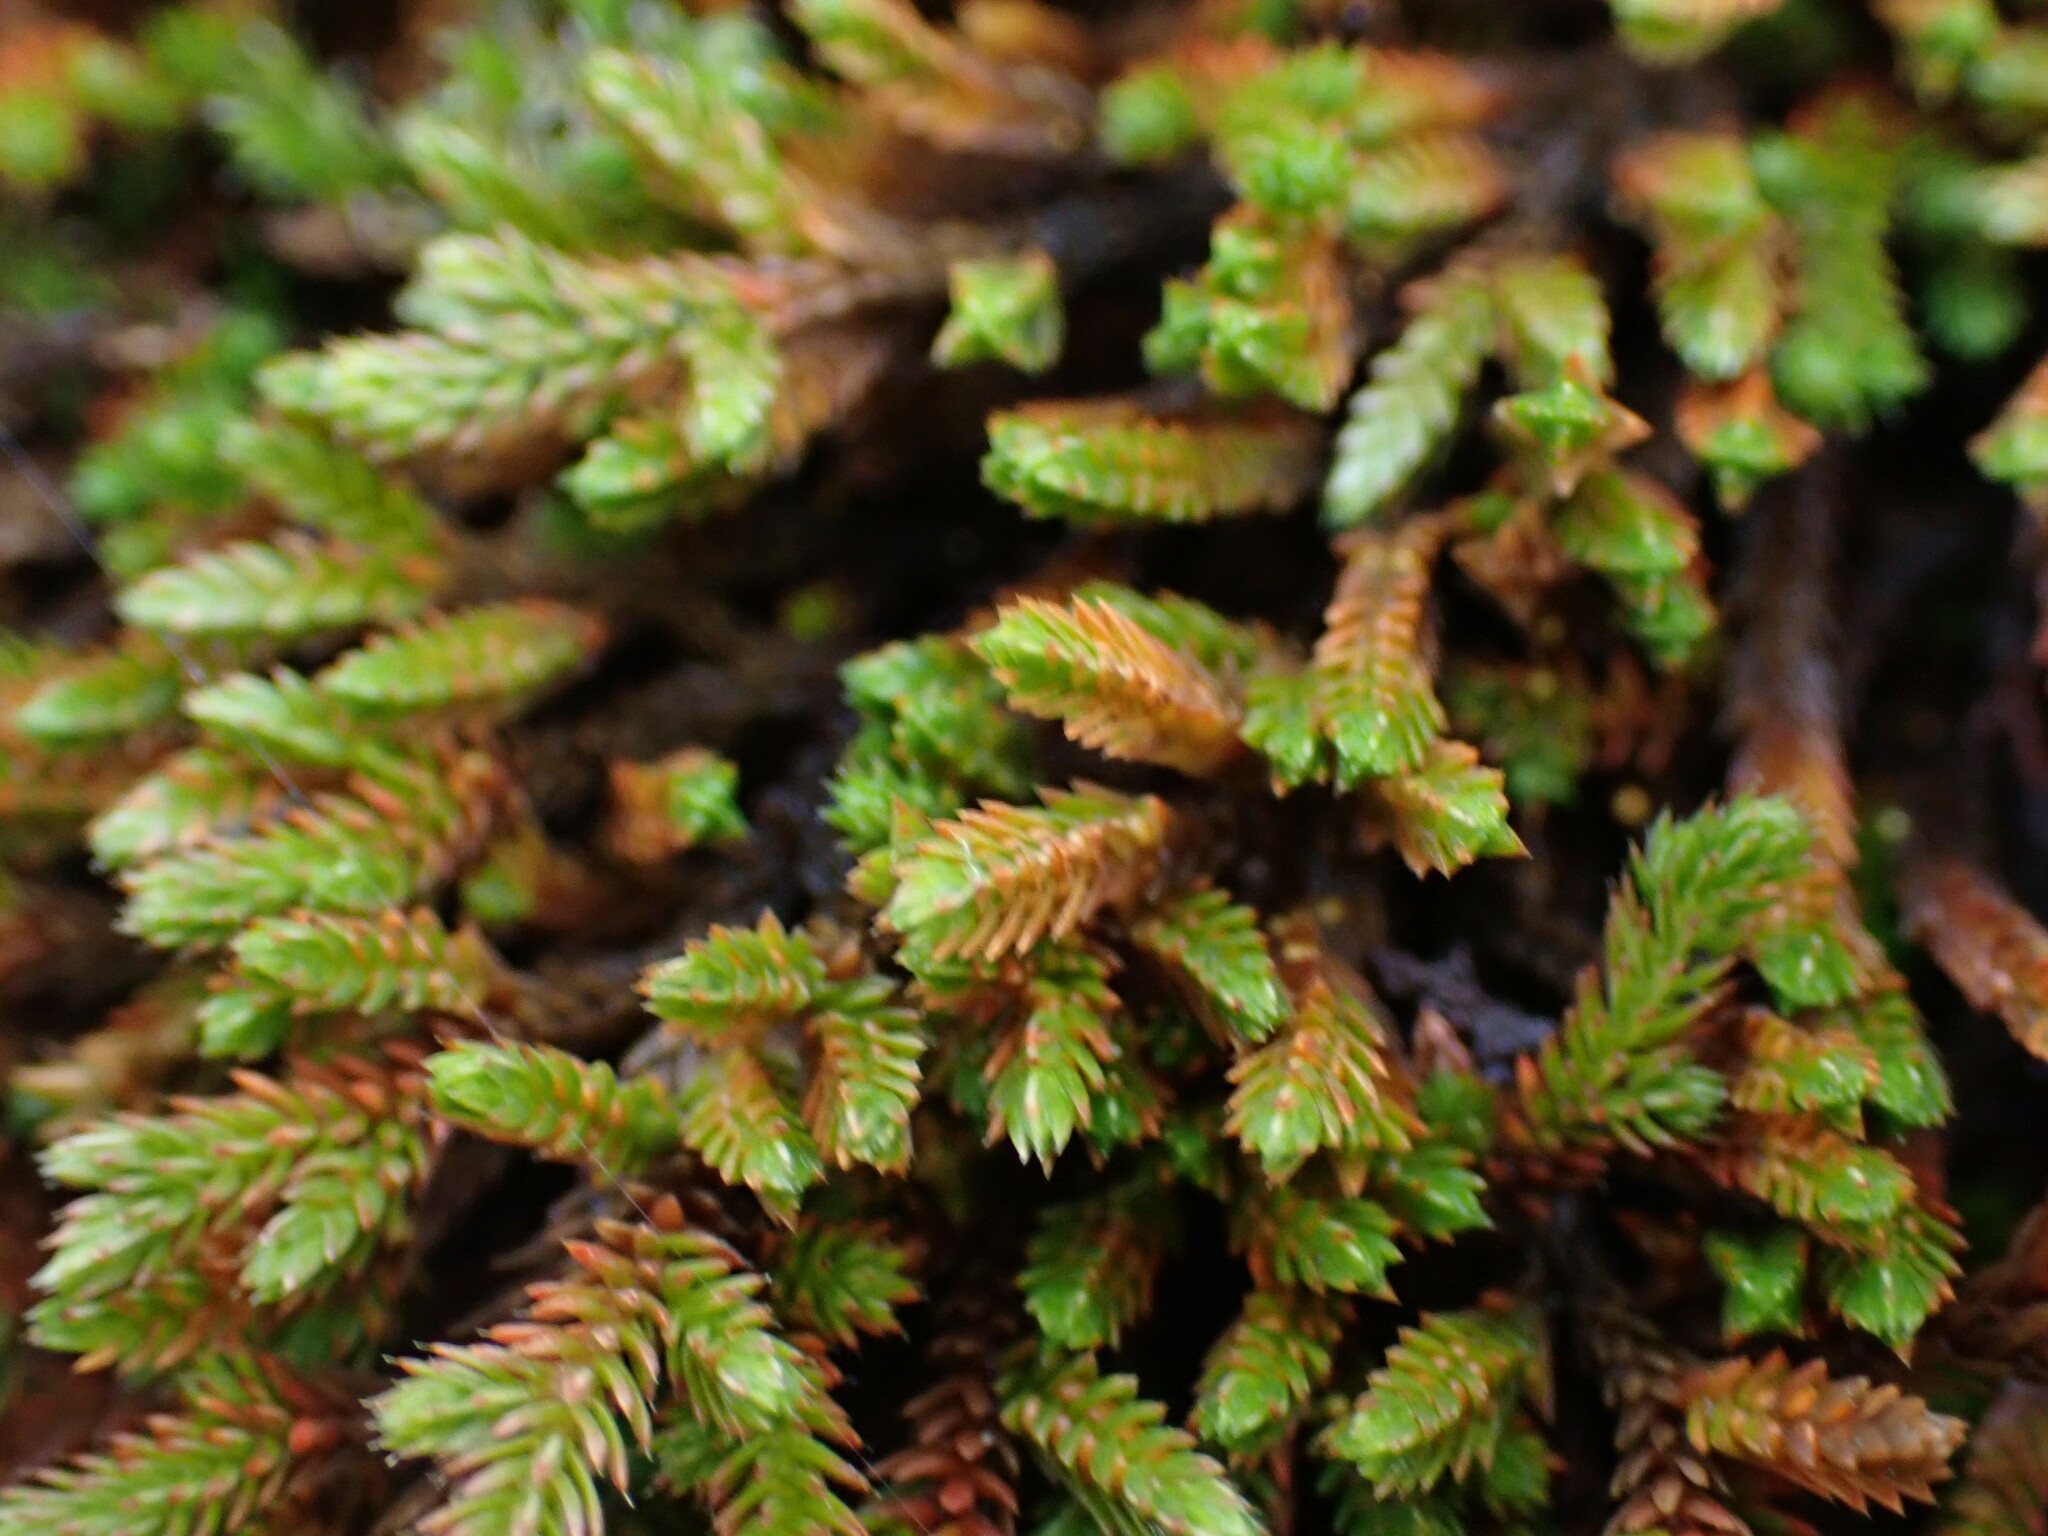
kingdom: Plantae
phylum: Tracheophyta
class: Lycopodiopsida
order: Selaginellales
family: Selaginellaceae
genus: Selaginella
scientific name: Selaginella wallacei
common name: Wallace's selaginella
